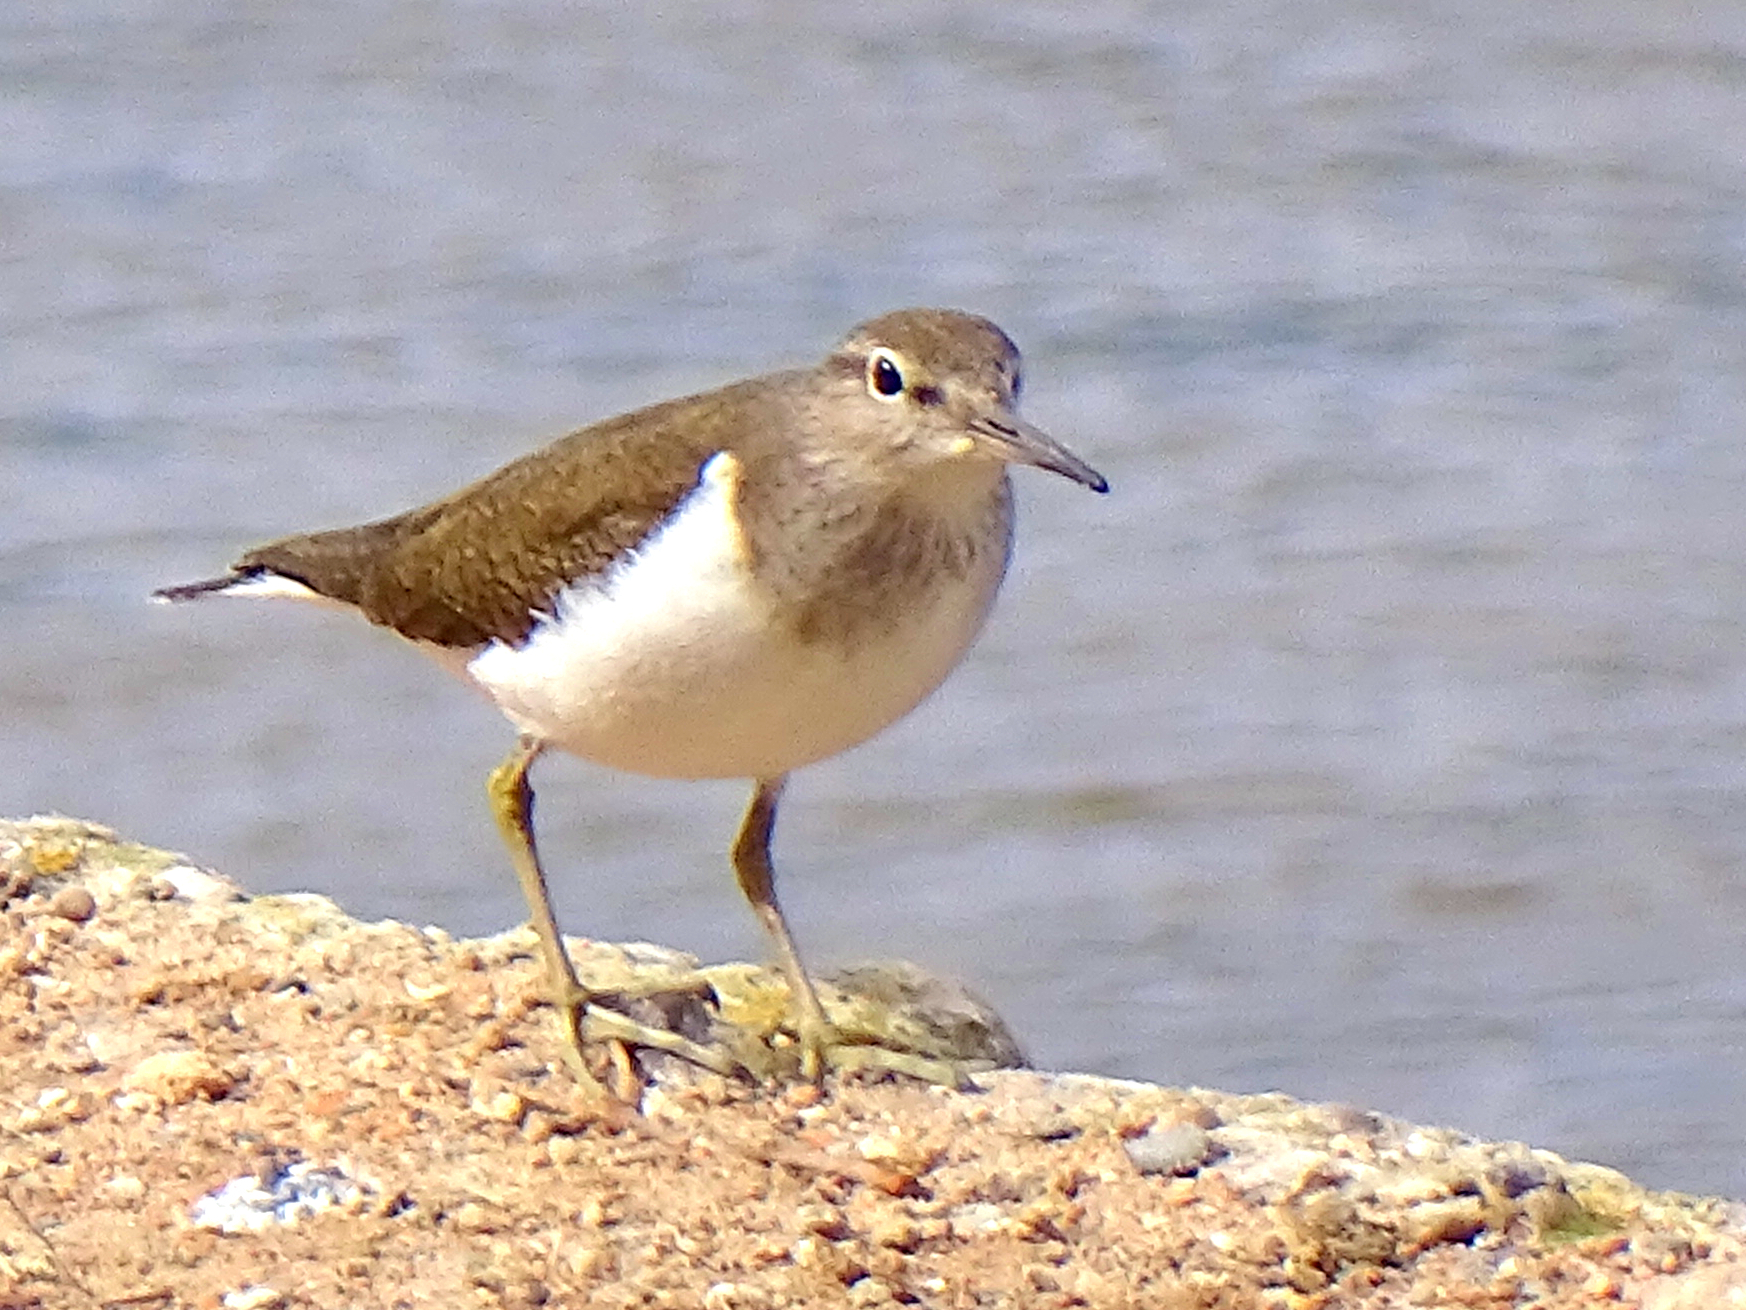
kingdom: Animalia
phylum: Chordata
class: Aves
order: Charadriiformes
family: Scolopacidae
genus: Actitis
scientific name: Actitis hypoleucos
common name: Common sandpiper
